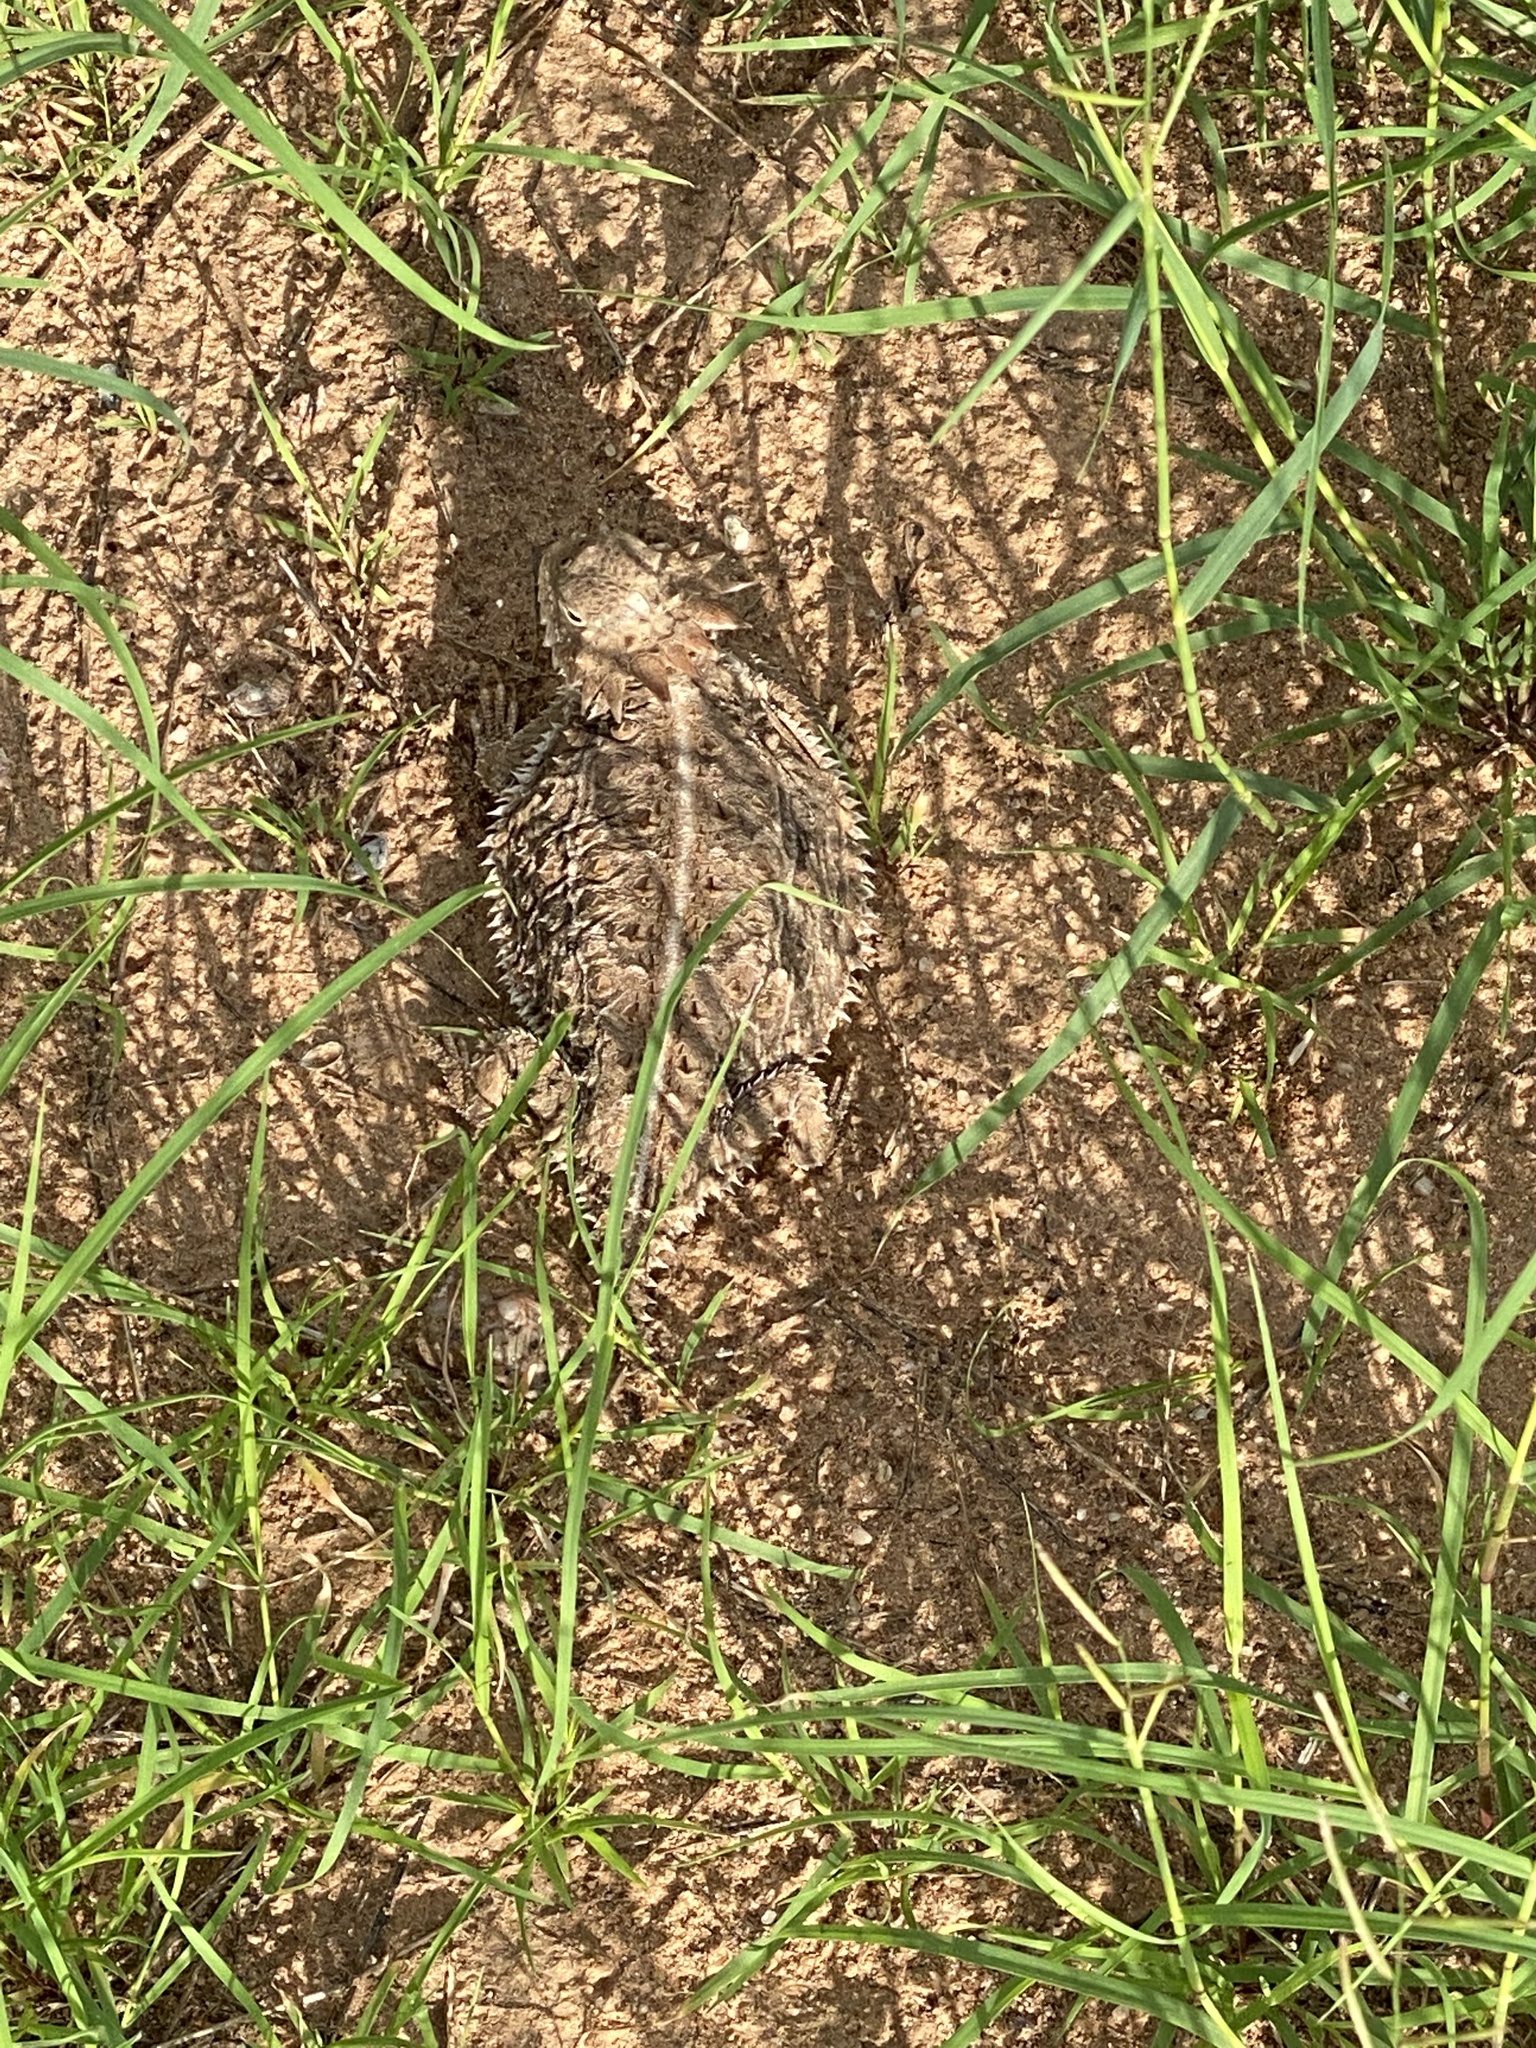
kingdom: Animalia
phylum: Chordata
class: Squamata
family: Phrynosomatidae
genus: Phrynosoma
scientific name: Phrynosoma solare
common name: Regal horned lizard
